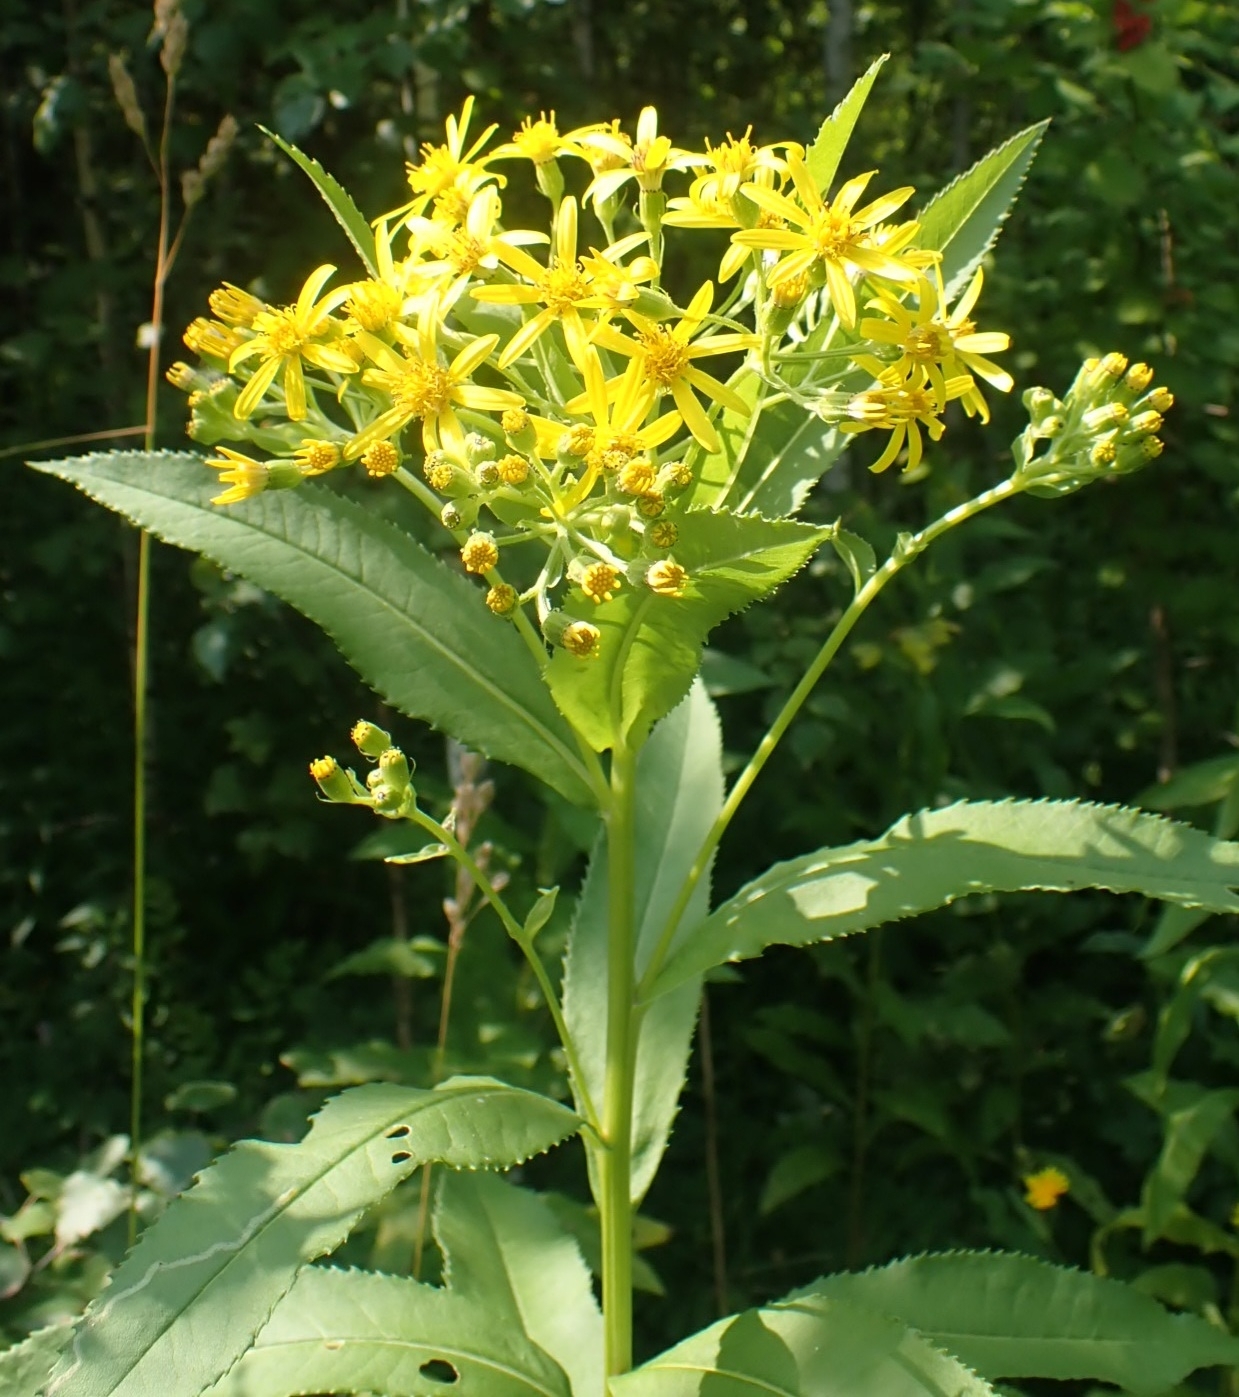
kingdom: Plantae
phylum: Tracheophyta
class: Magnoliopsida
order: Asterales
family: Asteraceae
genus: Senecio
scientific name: Senecio sarracenicus
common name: Broad-leaved ragwort
